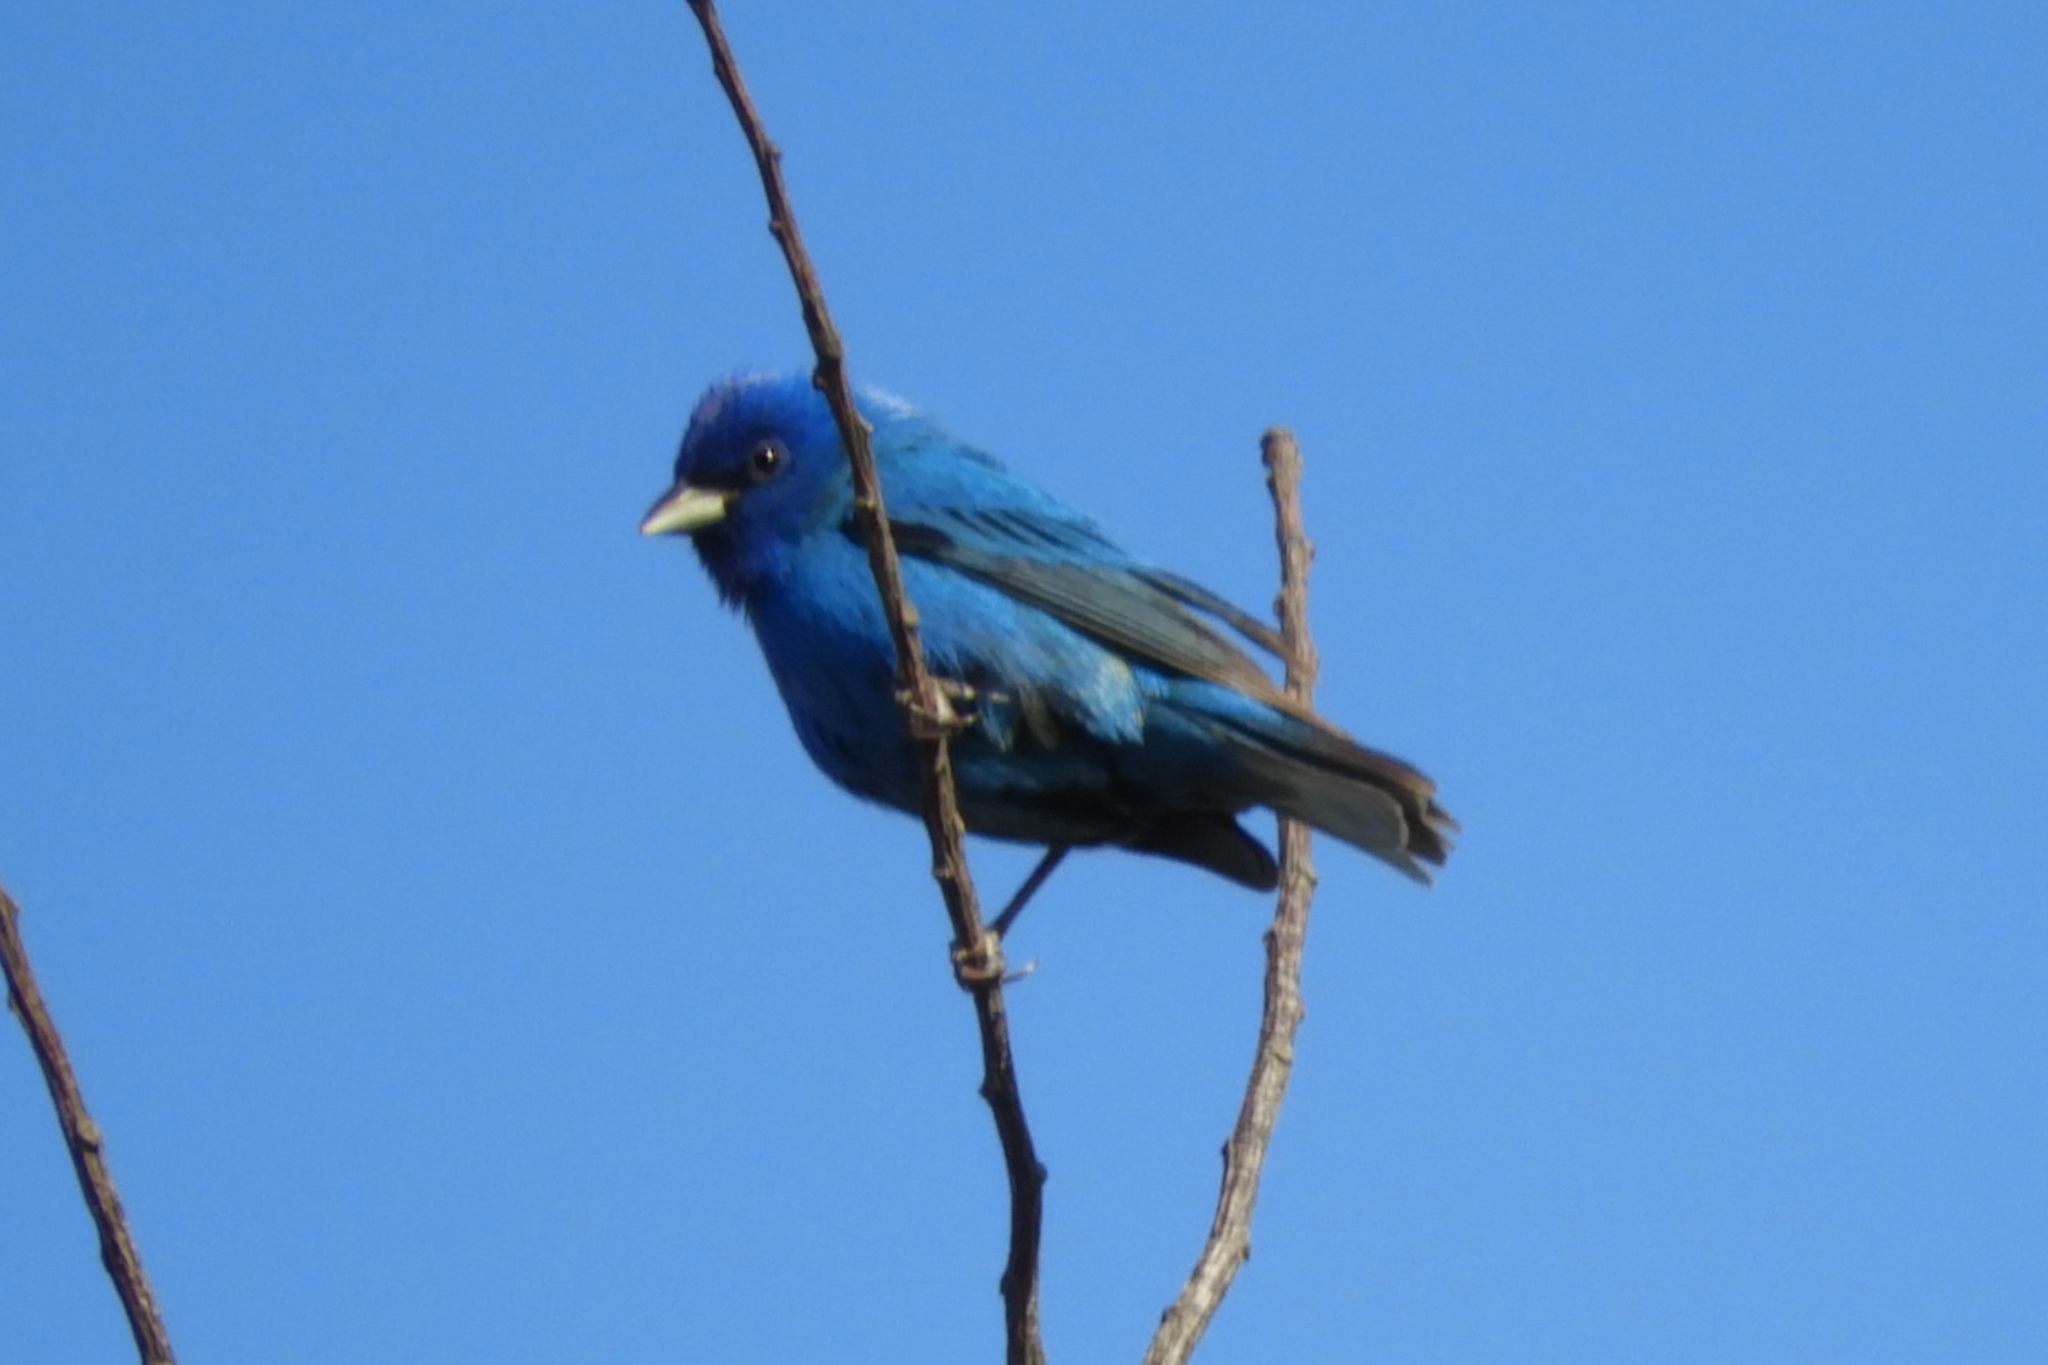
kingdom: Animalia
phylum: Chordata
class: Aves
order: Passeriformes
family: Cardinalidae
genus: Passerina
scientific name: Passerina cyanea
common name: Indigo bunting
